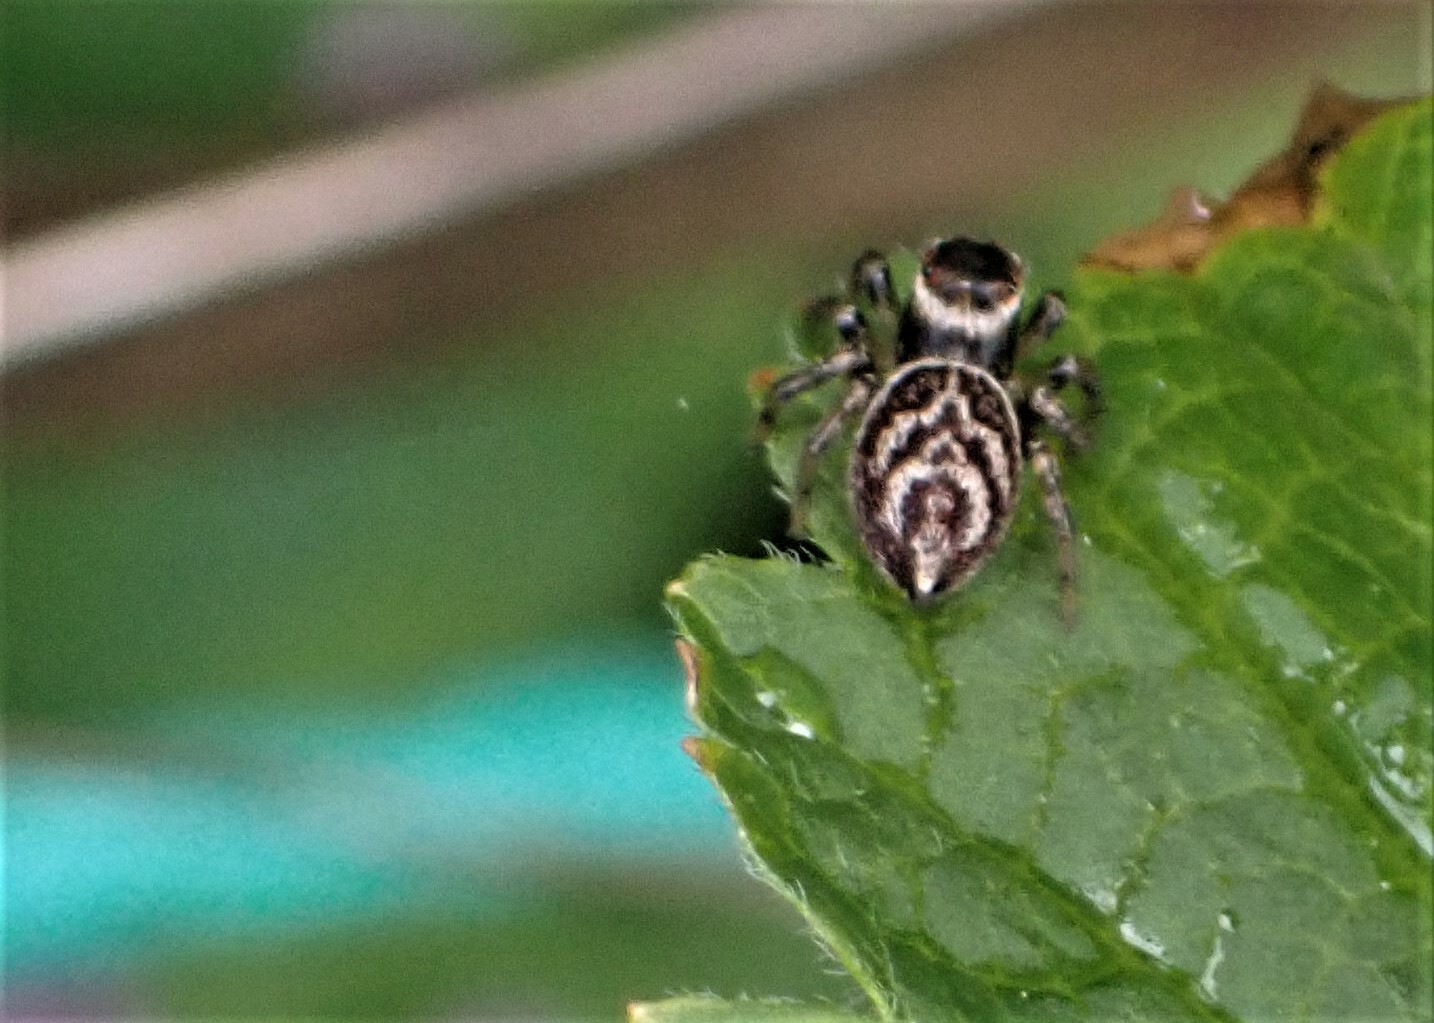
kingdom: Animalia
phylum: Arthropoda
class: Arachnida
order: Araneae
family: Salticidae
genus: Maratus
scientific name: Maratus griseus
